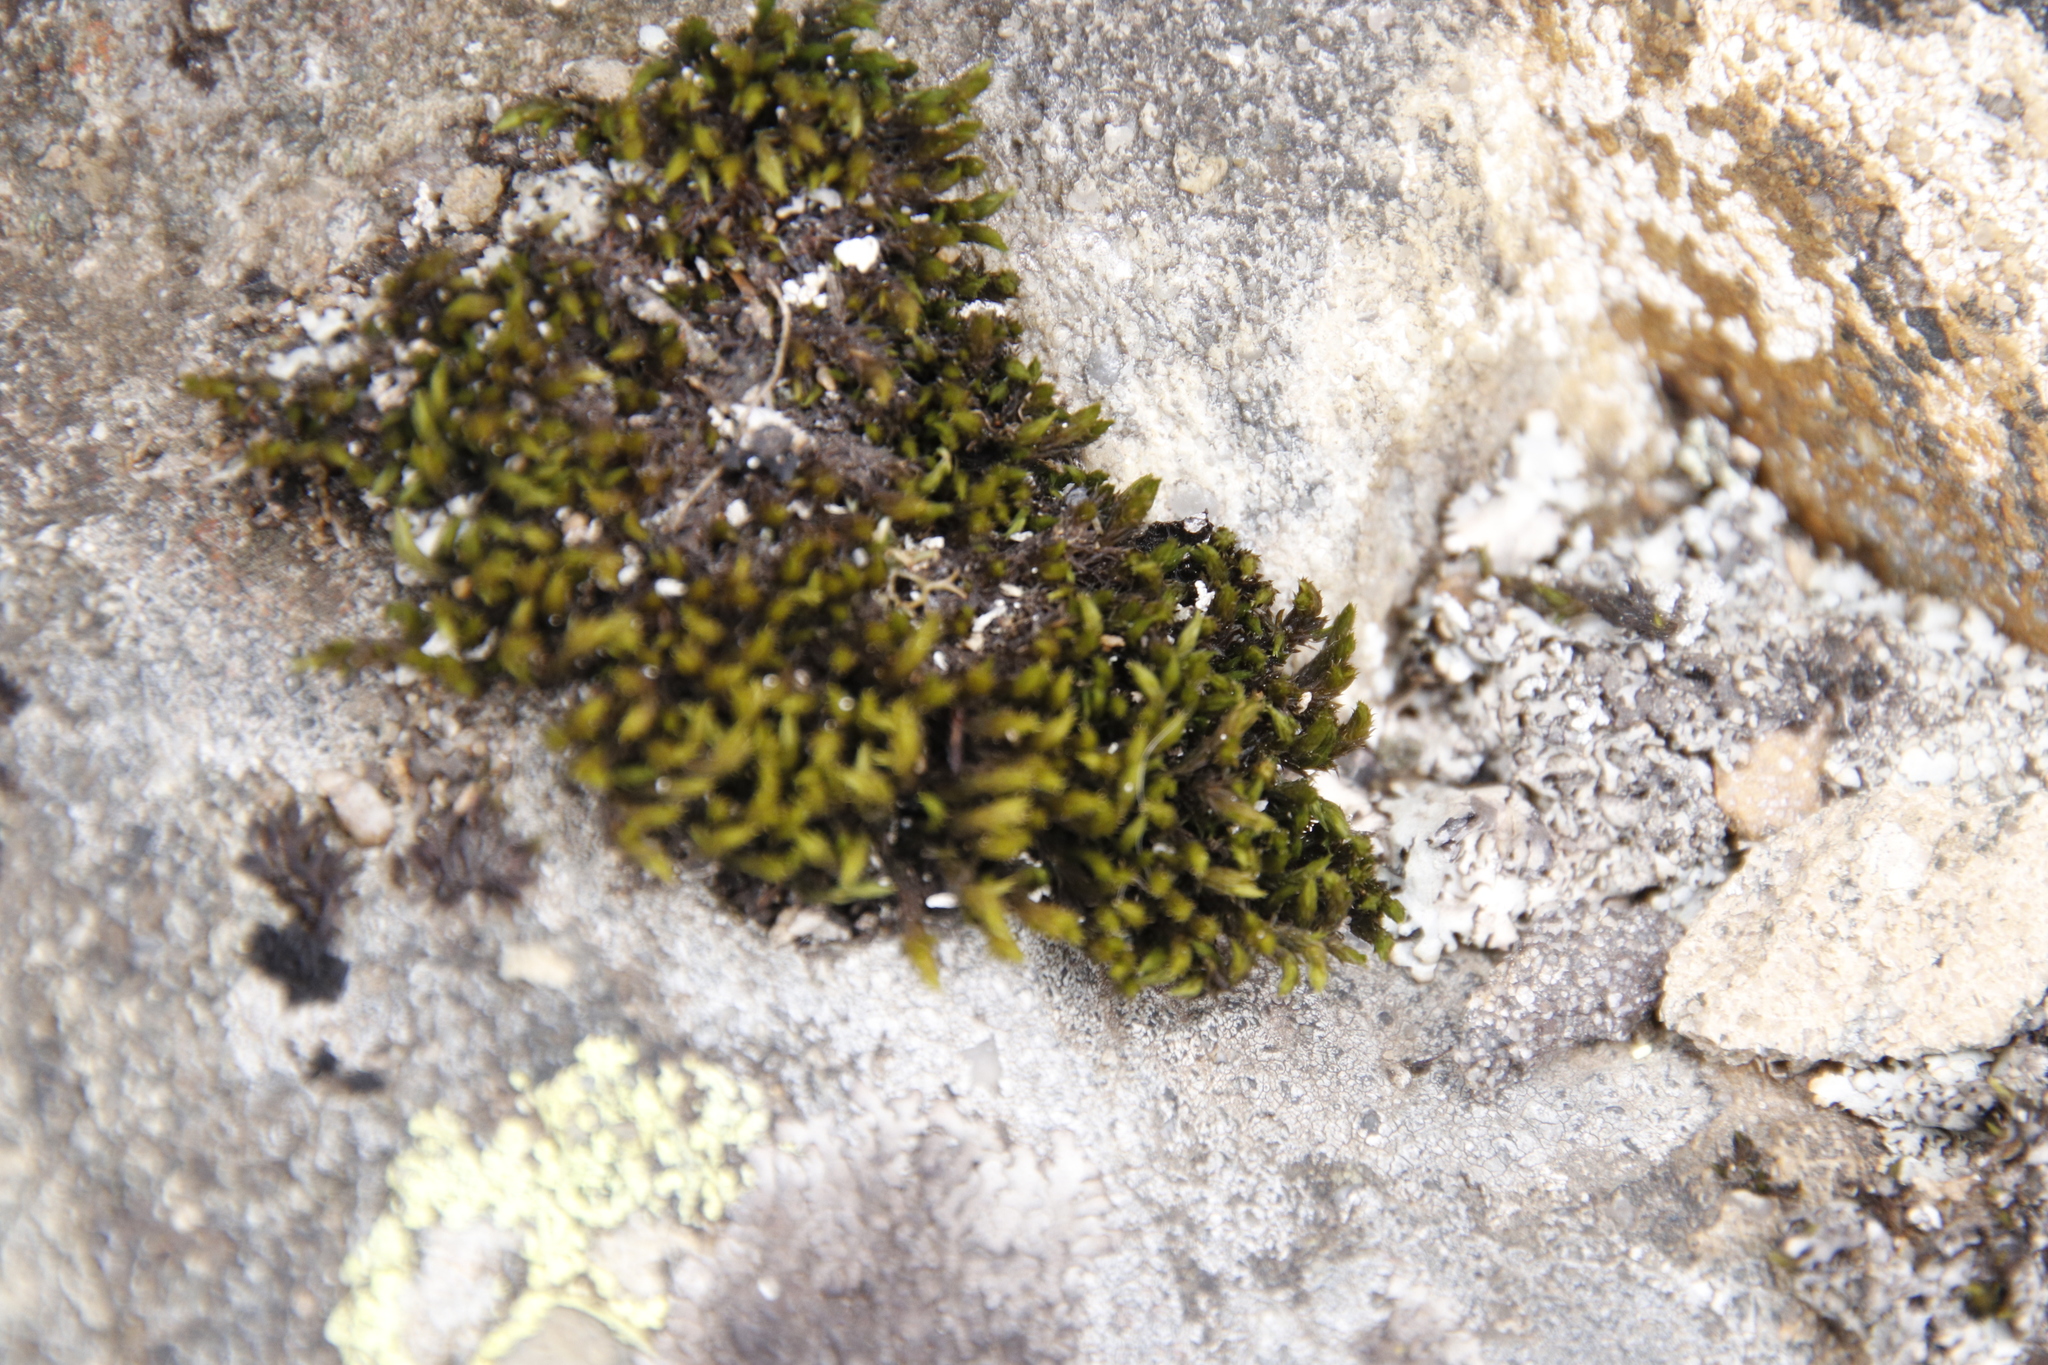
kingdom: Plantae
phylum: Bryophyta
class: Bryopsida
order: Grimmiales
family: Grimmiaceae
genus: Bucklandiella
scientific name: Bucklandiella crispipila
